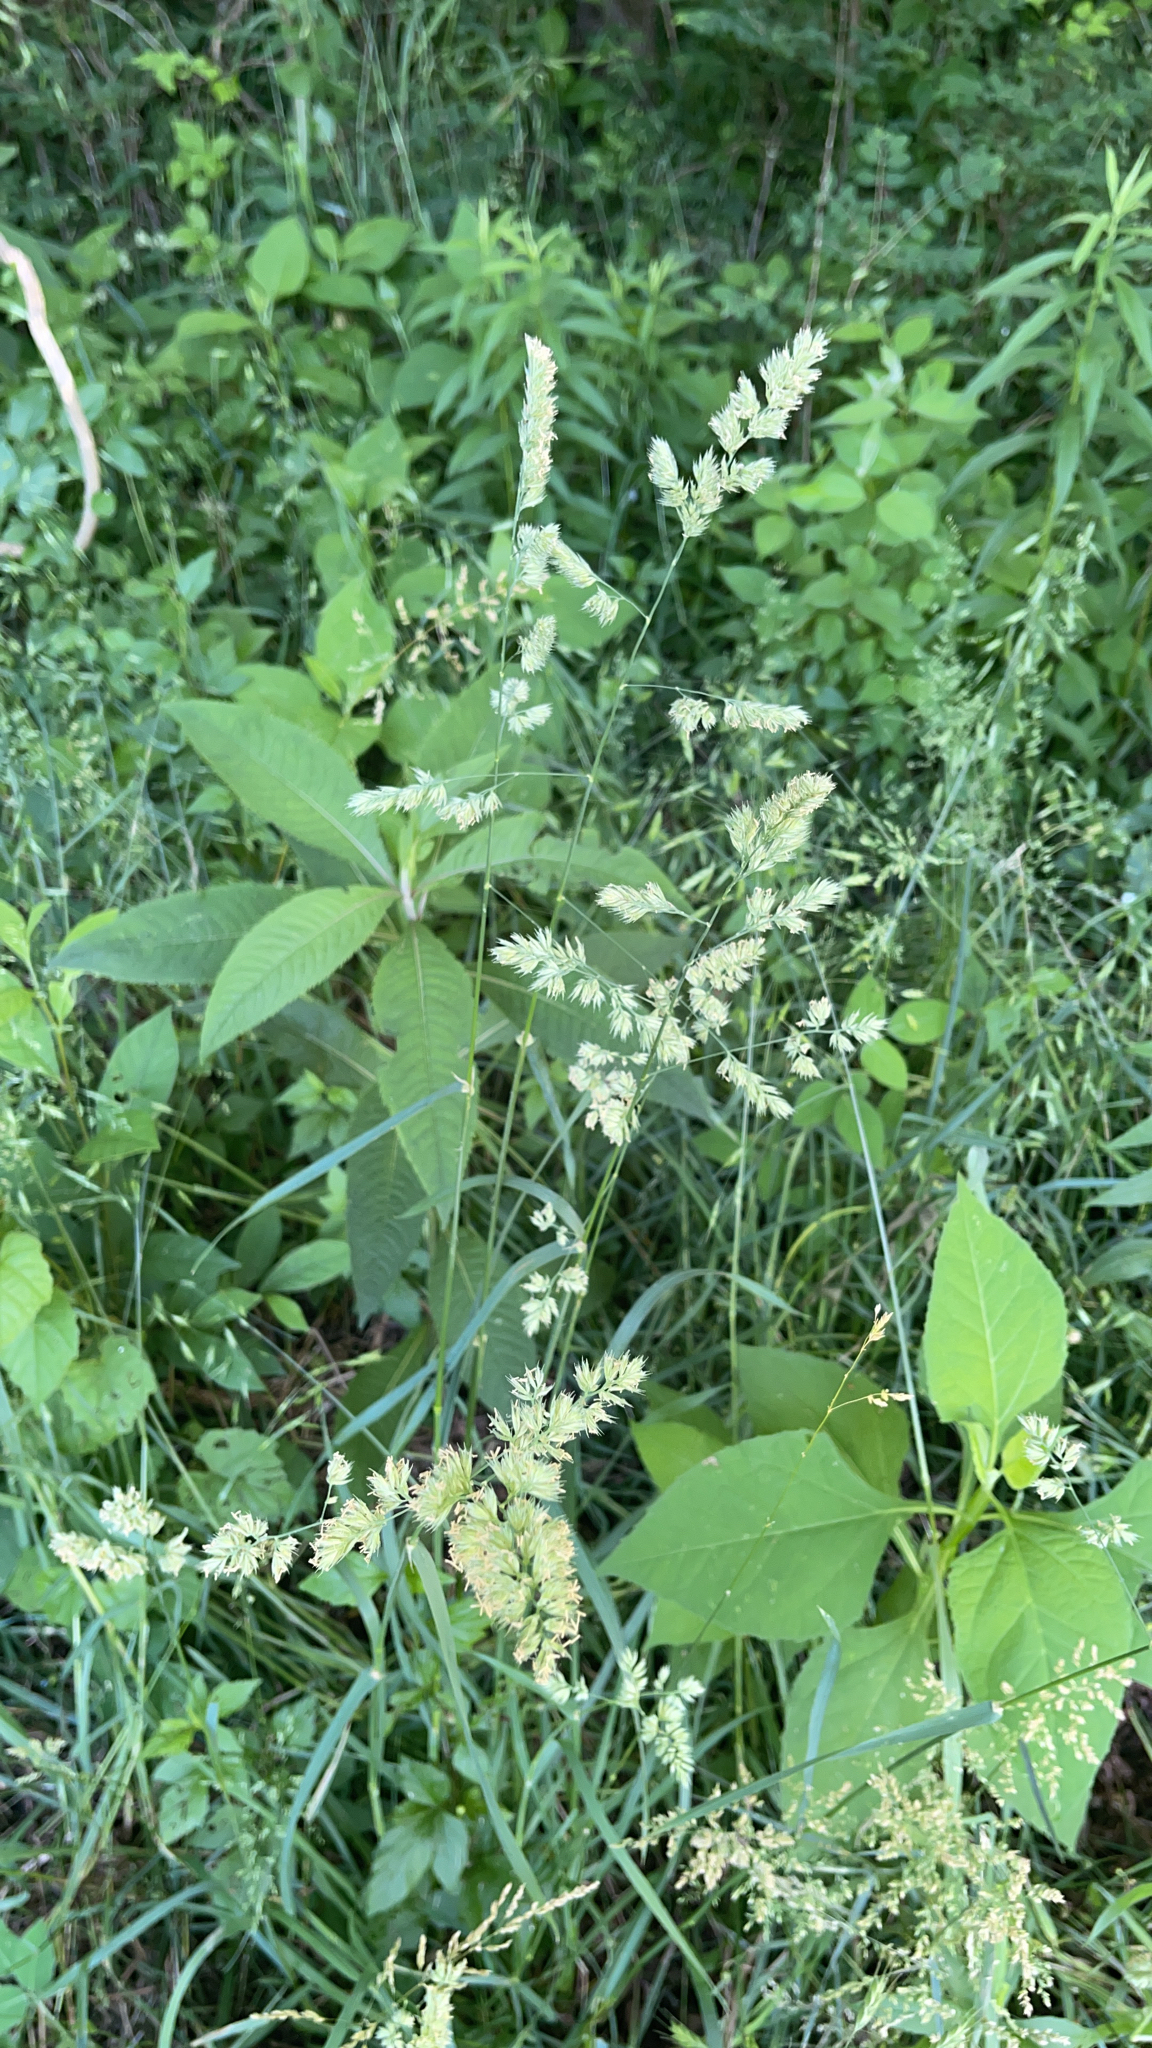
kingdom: Plantae
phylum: Tracheophyta
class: Liliopsida
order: Poales
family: Poaceae
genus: Dactylis
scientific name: Dactylis glomerata
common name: Orchardgrass
